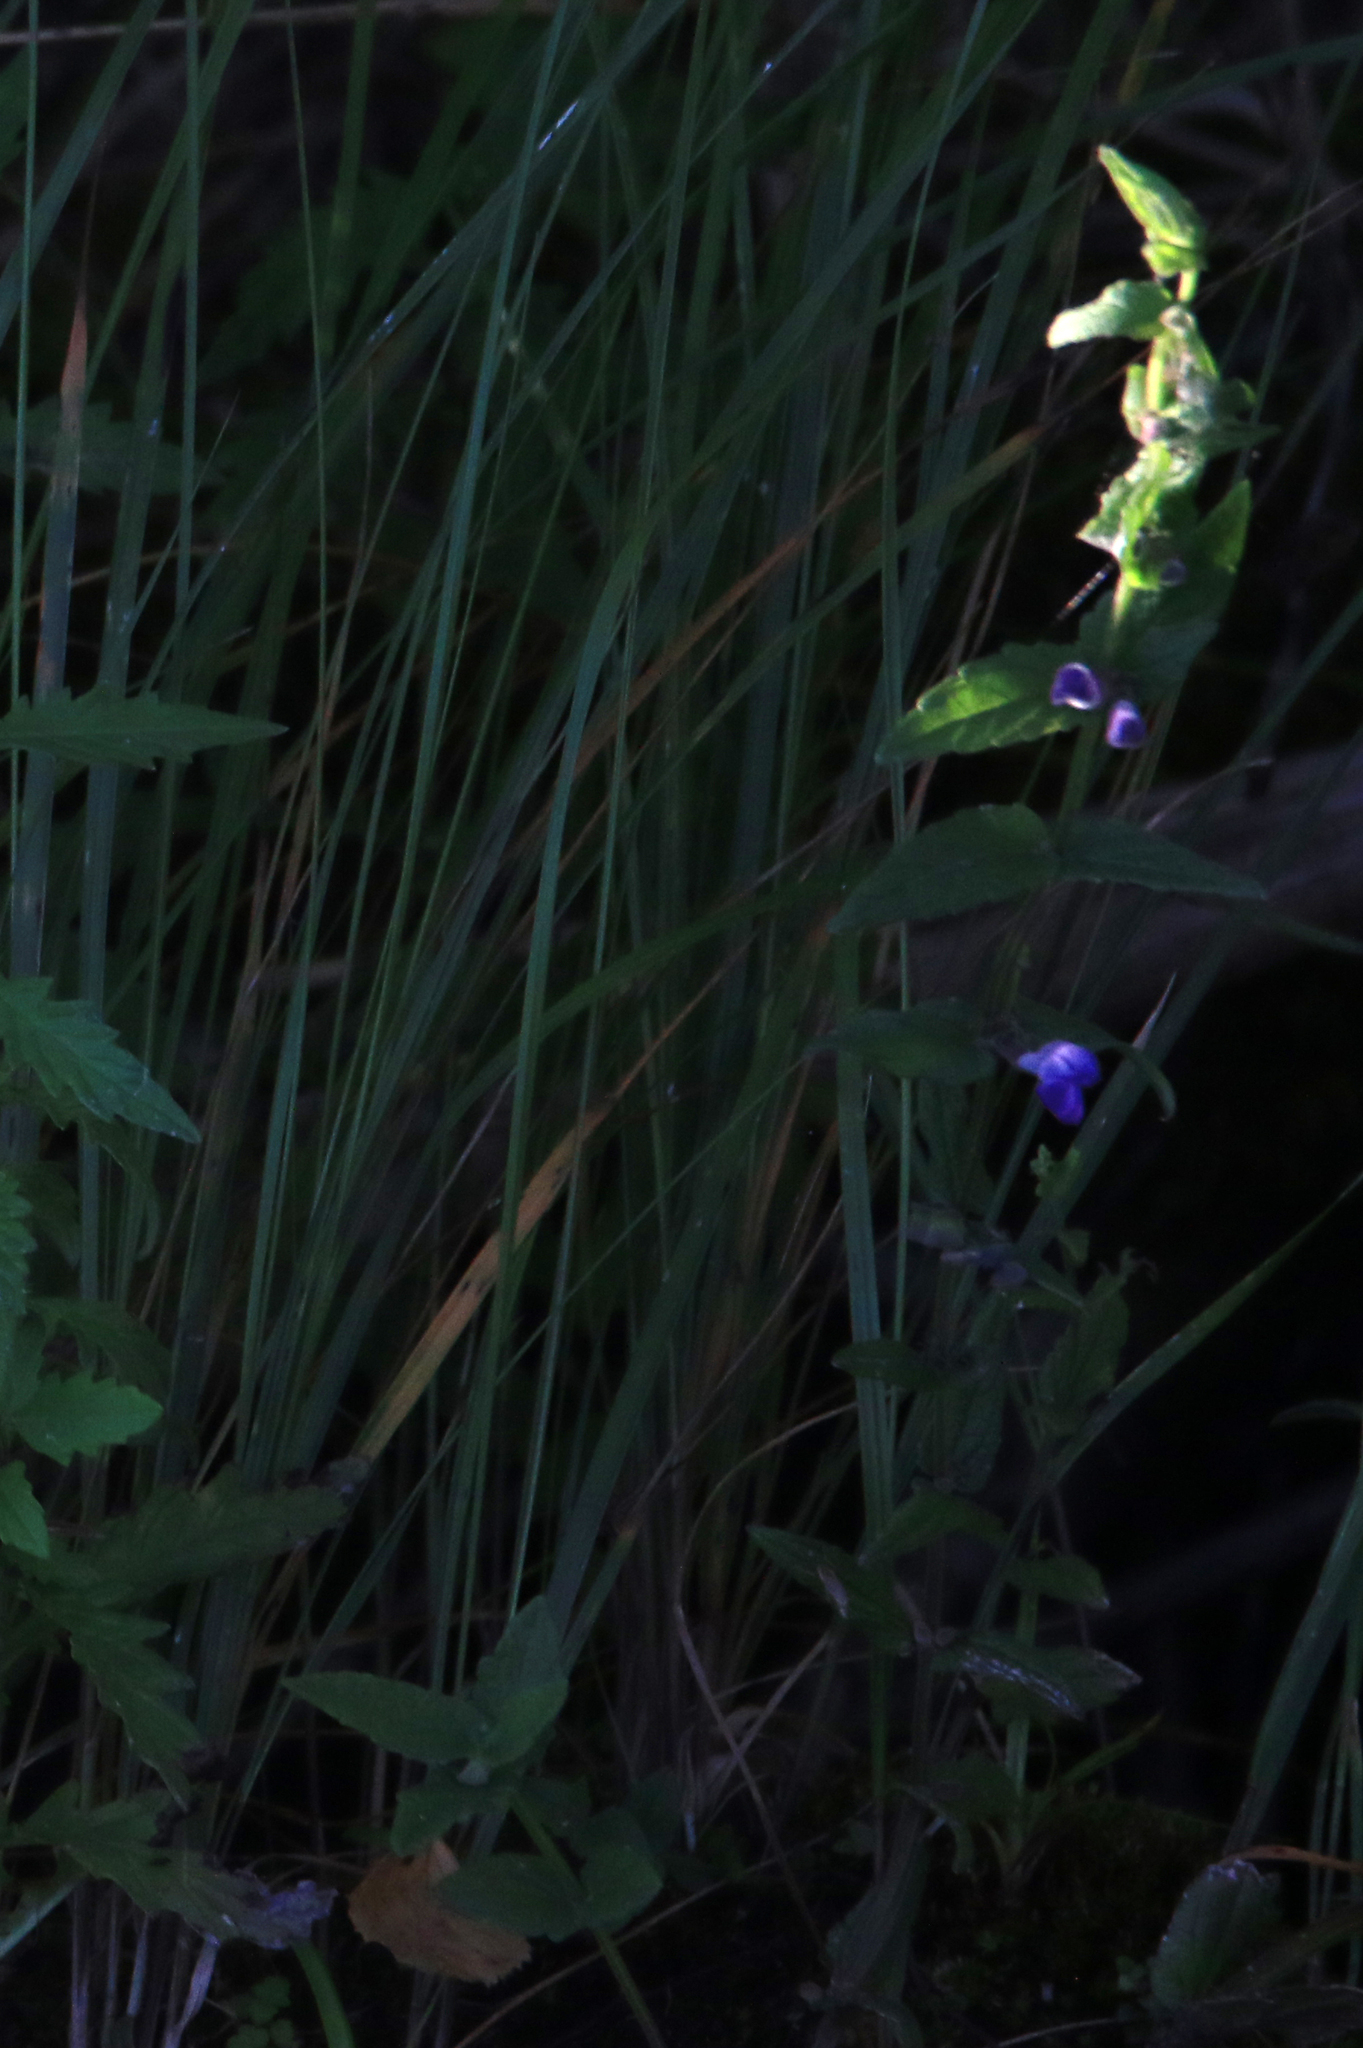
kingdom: Plantae
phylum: Tracheophyta
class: Magnoliopsida
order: Lamiales
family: Lamiaceae
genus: Scutellaria
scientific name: Scutellaria galericulata
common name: Skullcap
